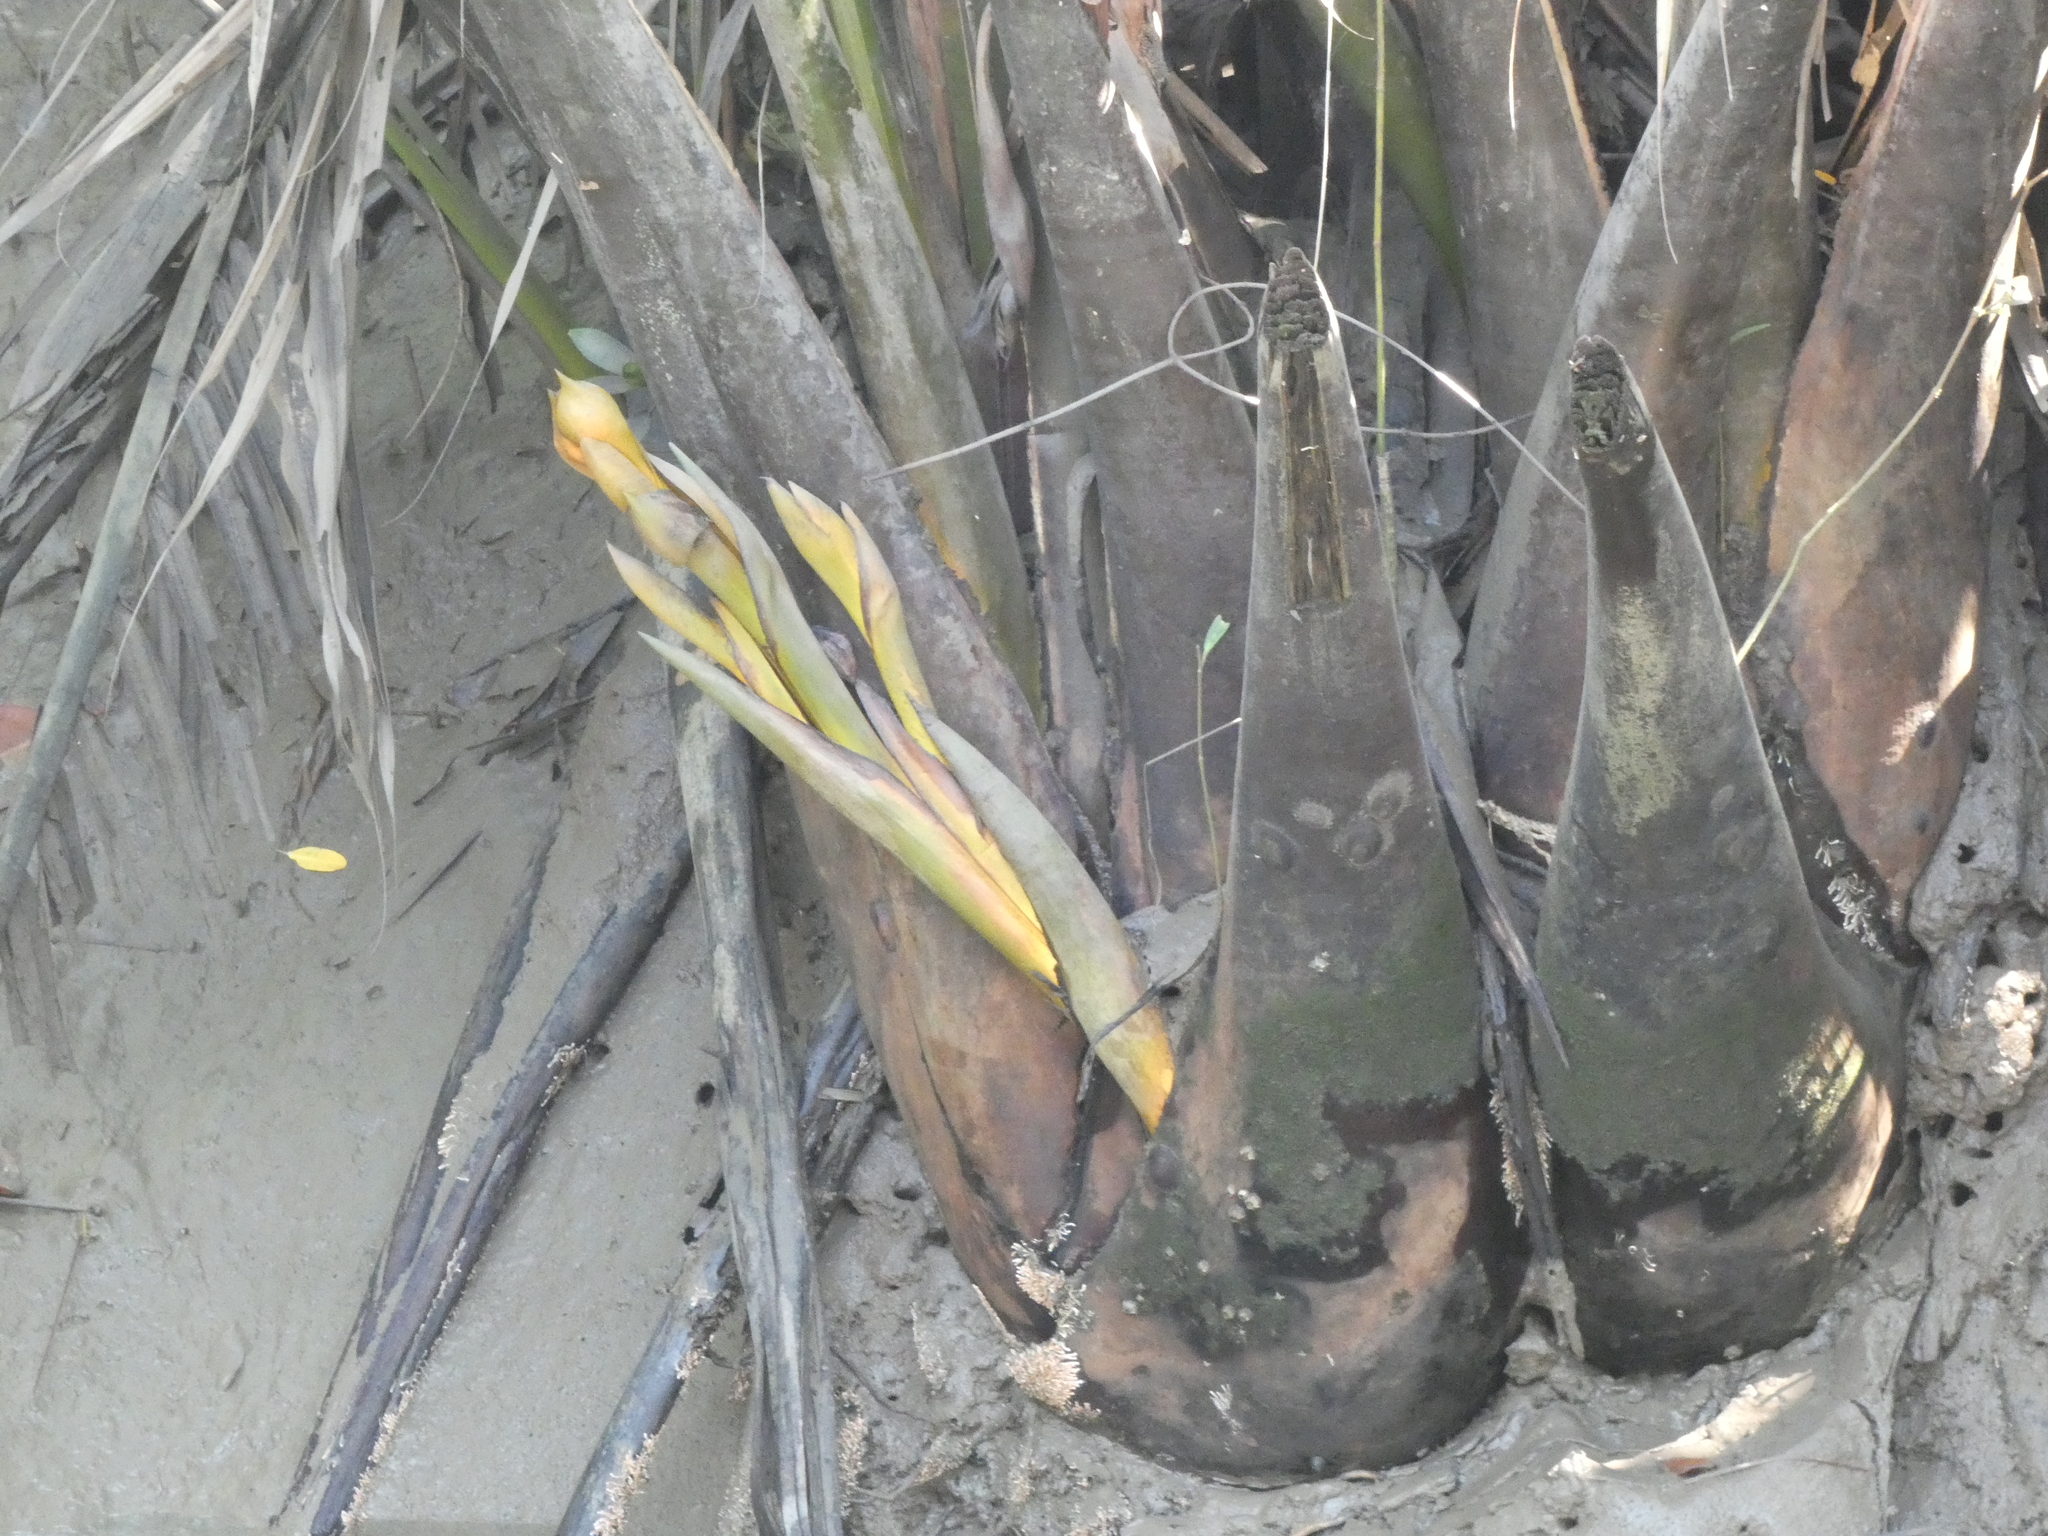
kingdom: Plantae
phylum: Tracheophyta
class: Liliopsida
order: Arecales
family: Arecaceae
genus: Nypa
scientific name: Nypa fruticans
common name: Mangrove palm
